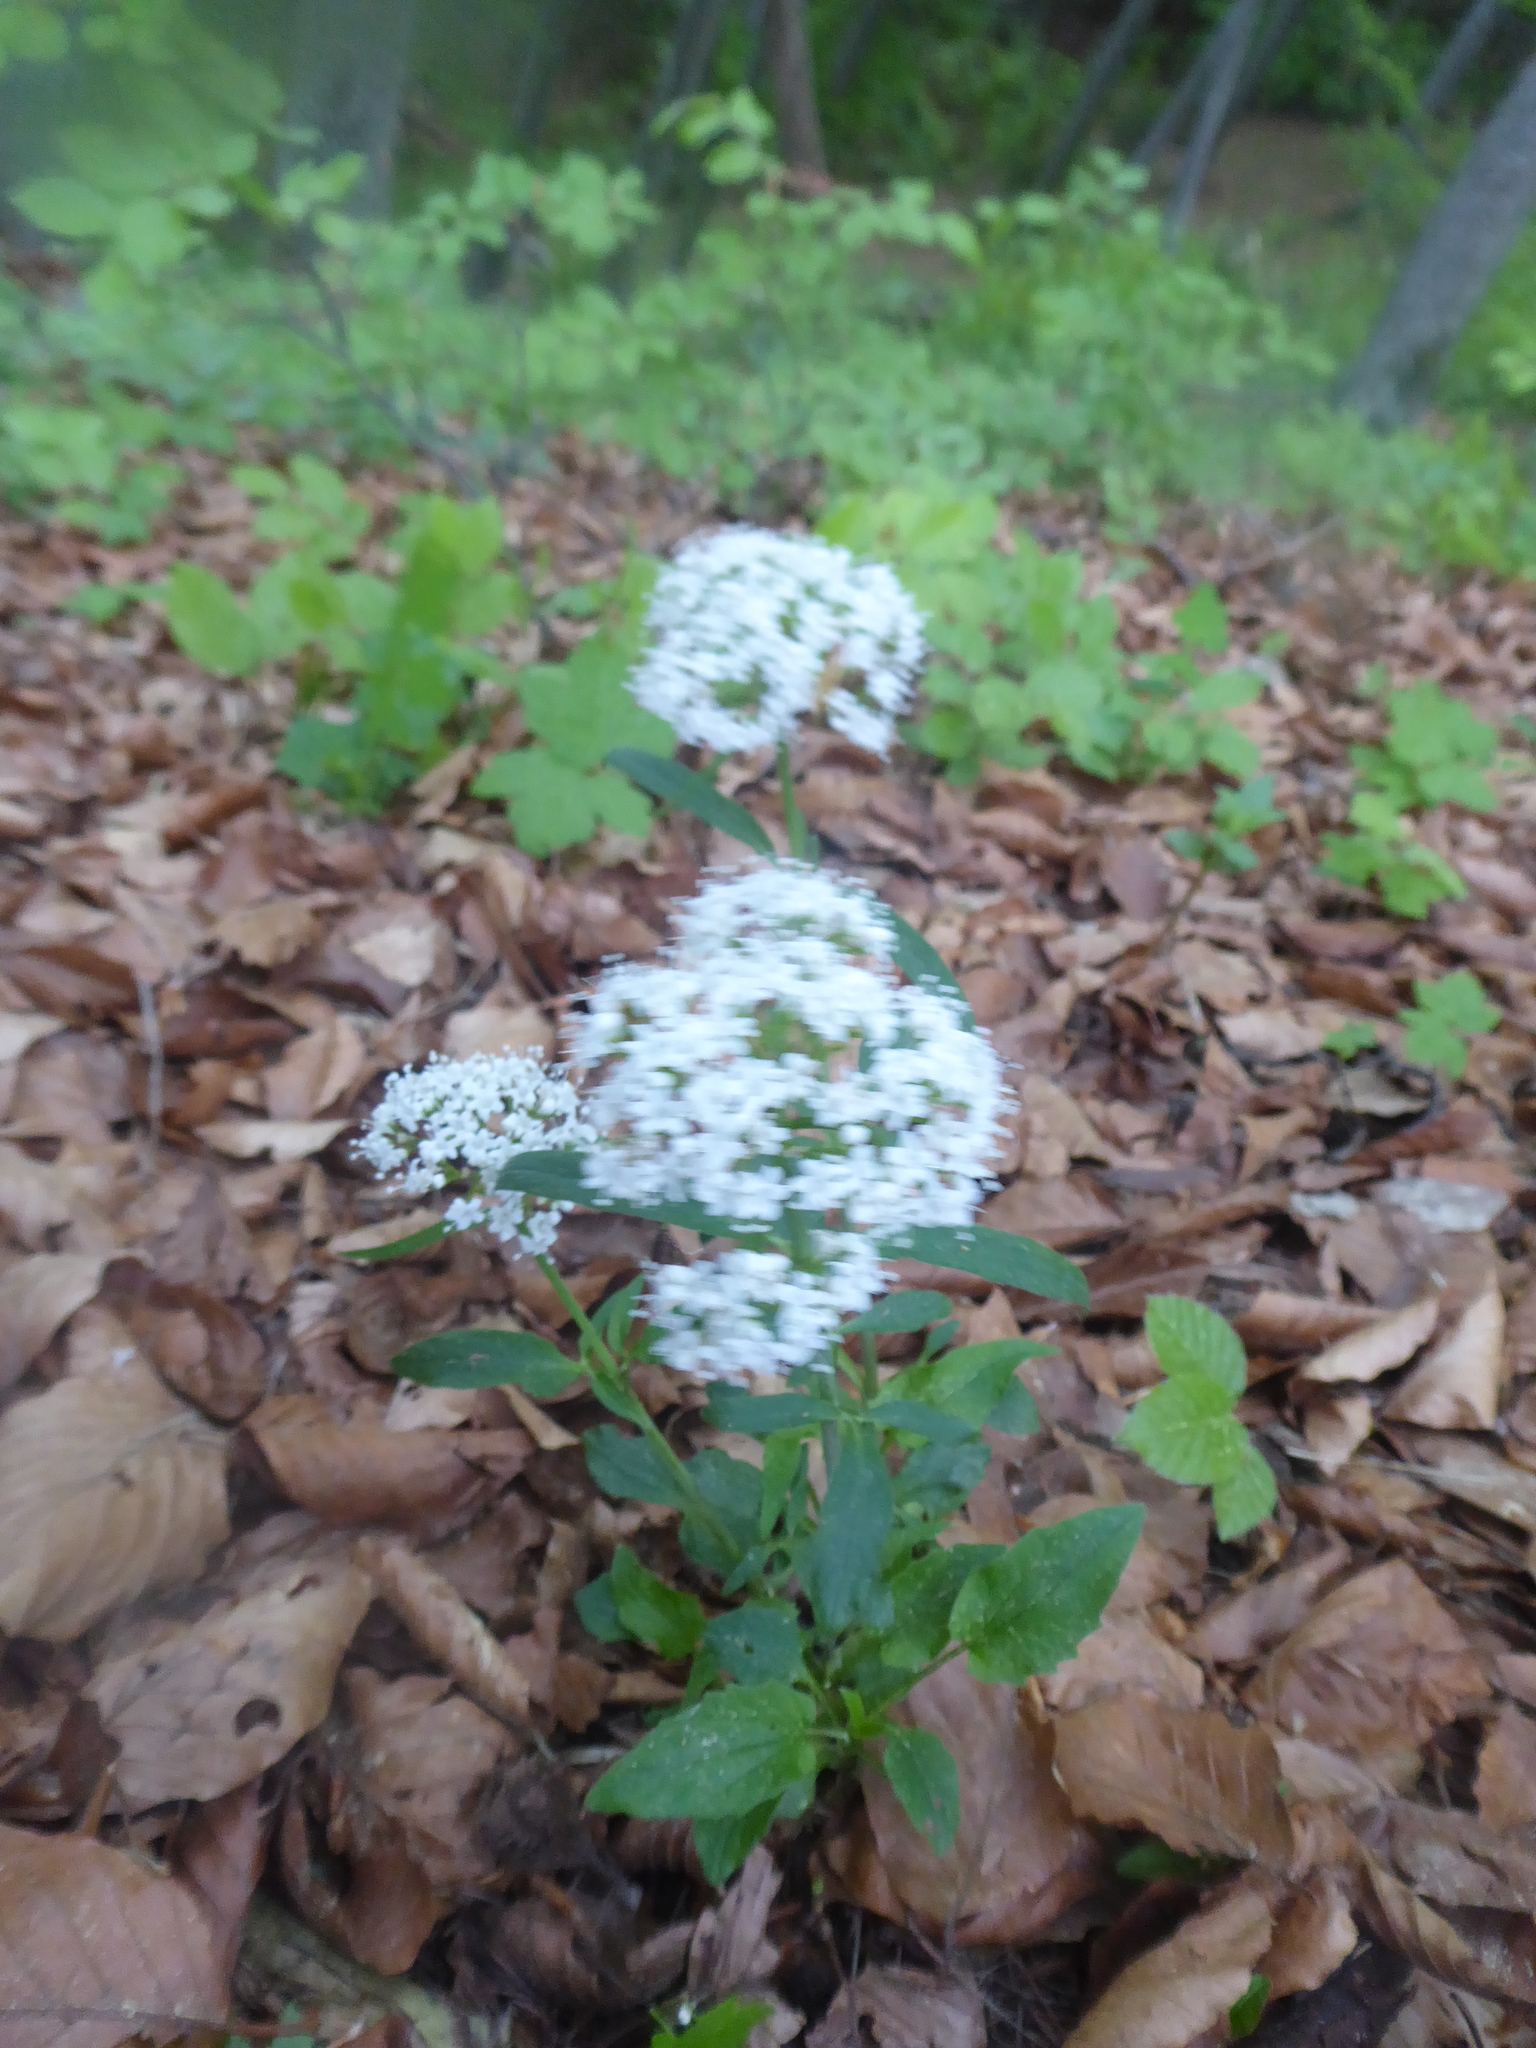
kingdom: Plantae
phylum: Tracheophyta
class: Magnoliopsida
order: Dipsacales
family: Caprifoliaceae
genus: Valeriana
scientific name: Valeriana tripteris
